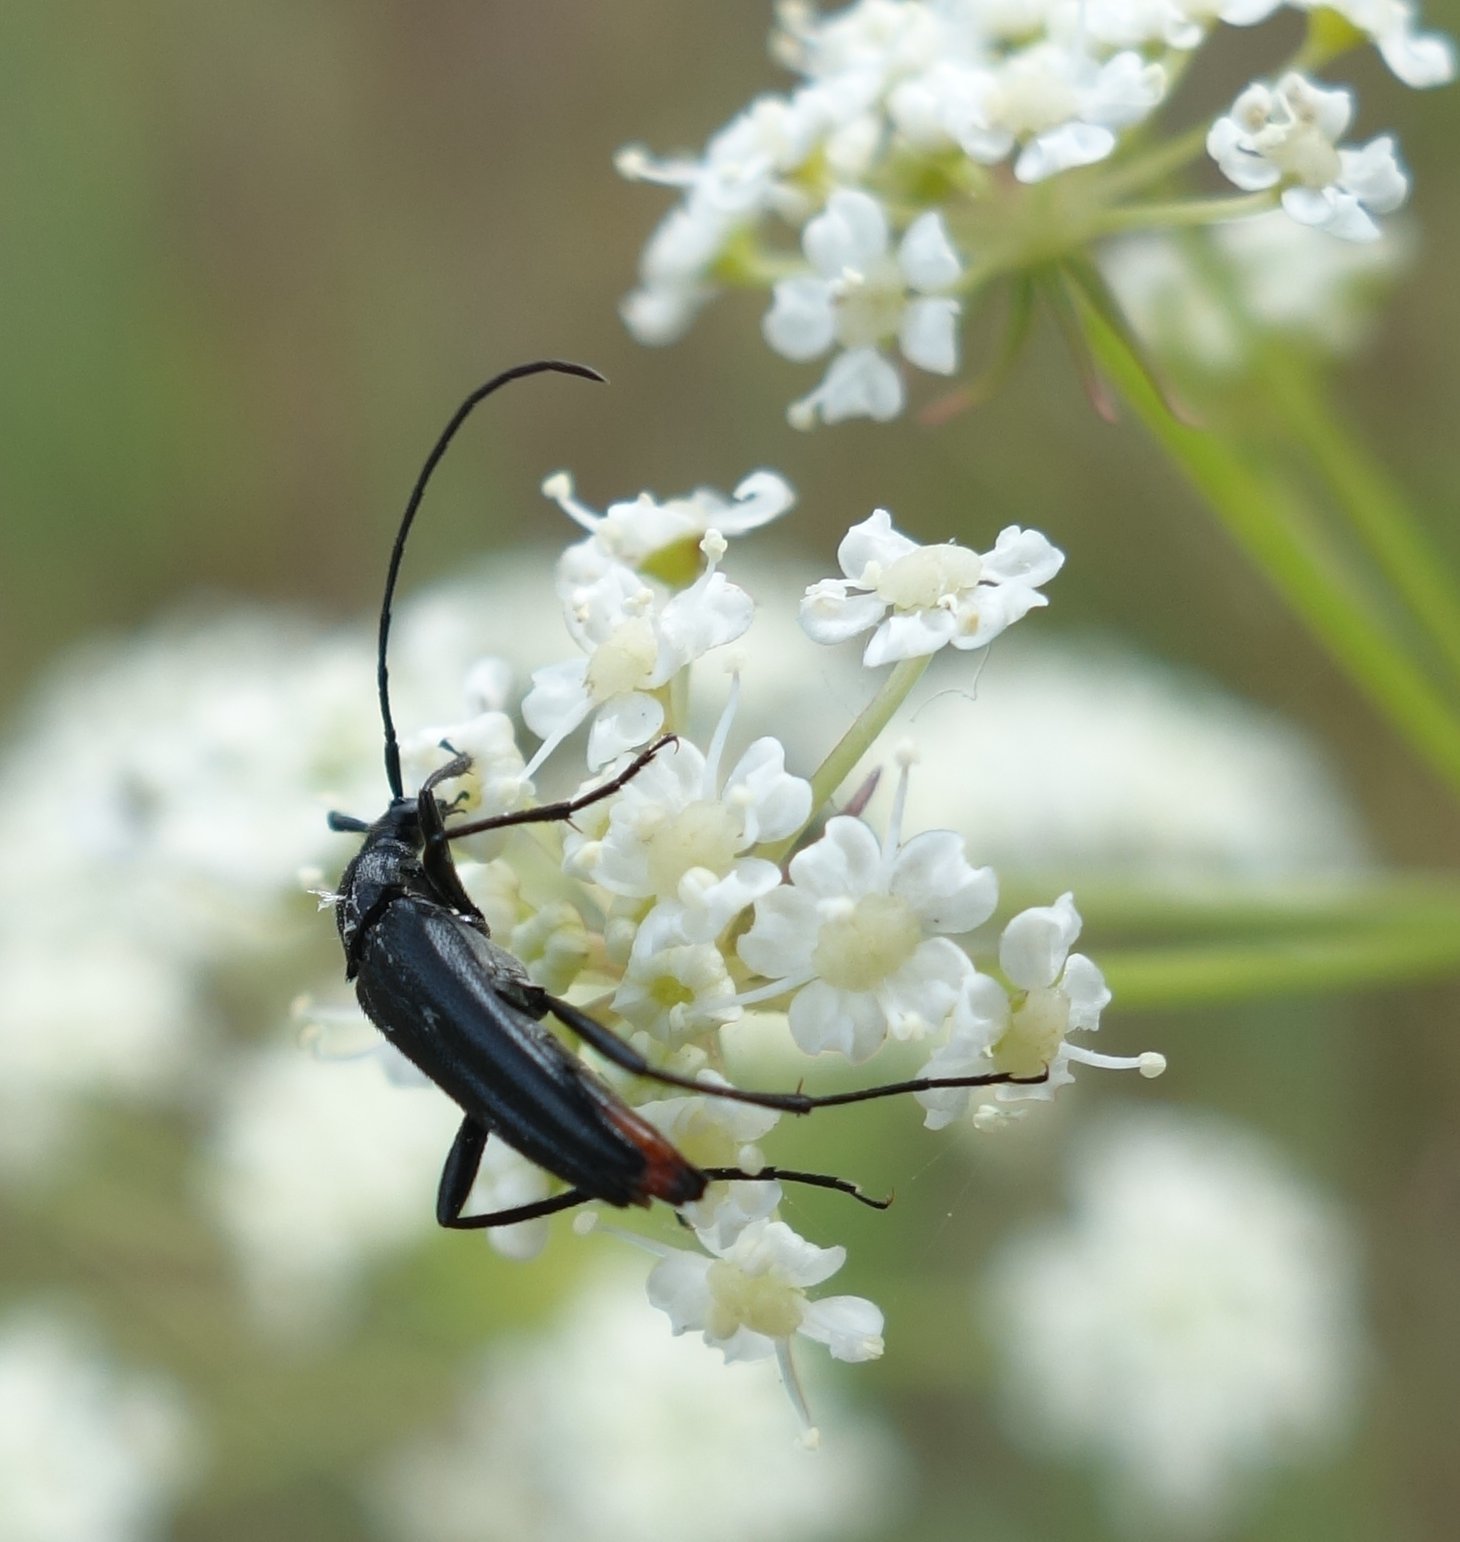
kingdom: Animalia
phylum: Arthropoda
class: Insecta
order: Coleoptera
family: Cerambycidae
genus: Stenurella
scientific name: Stenurella nigra
